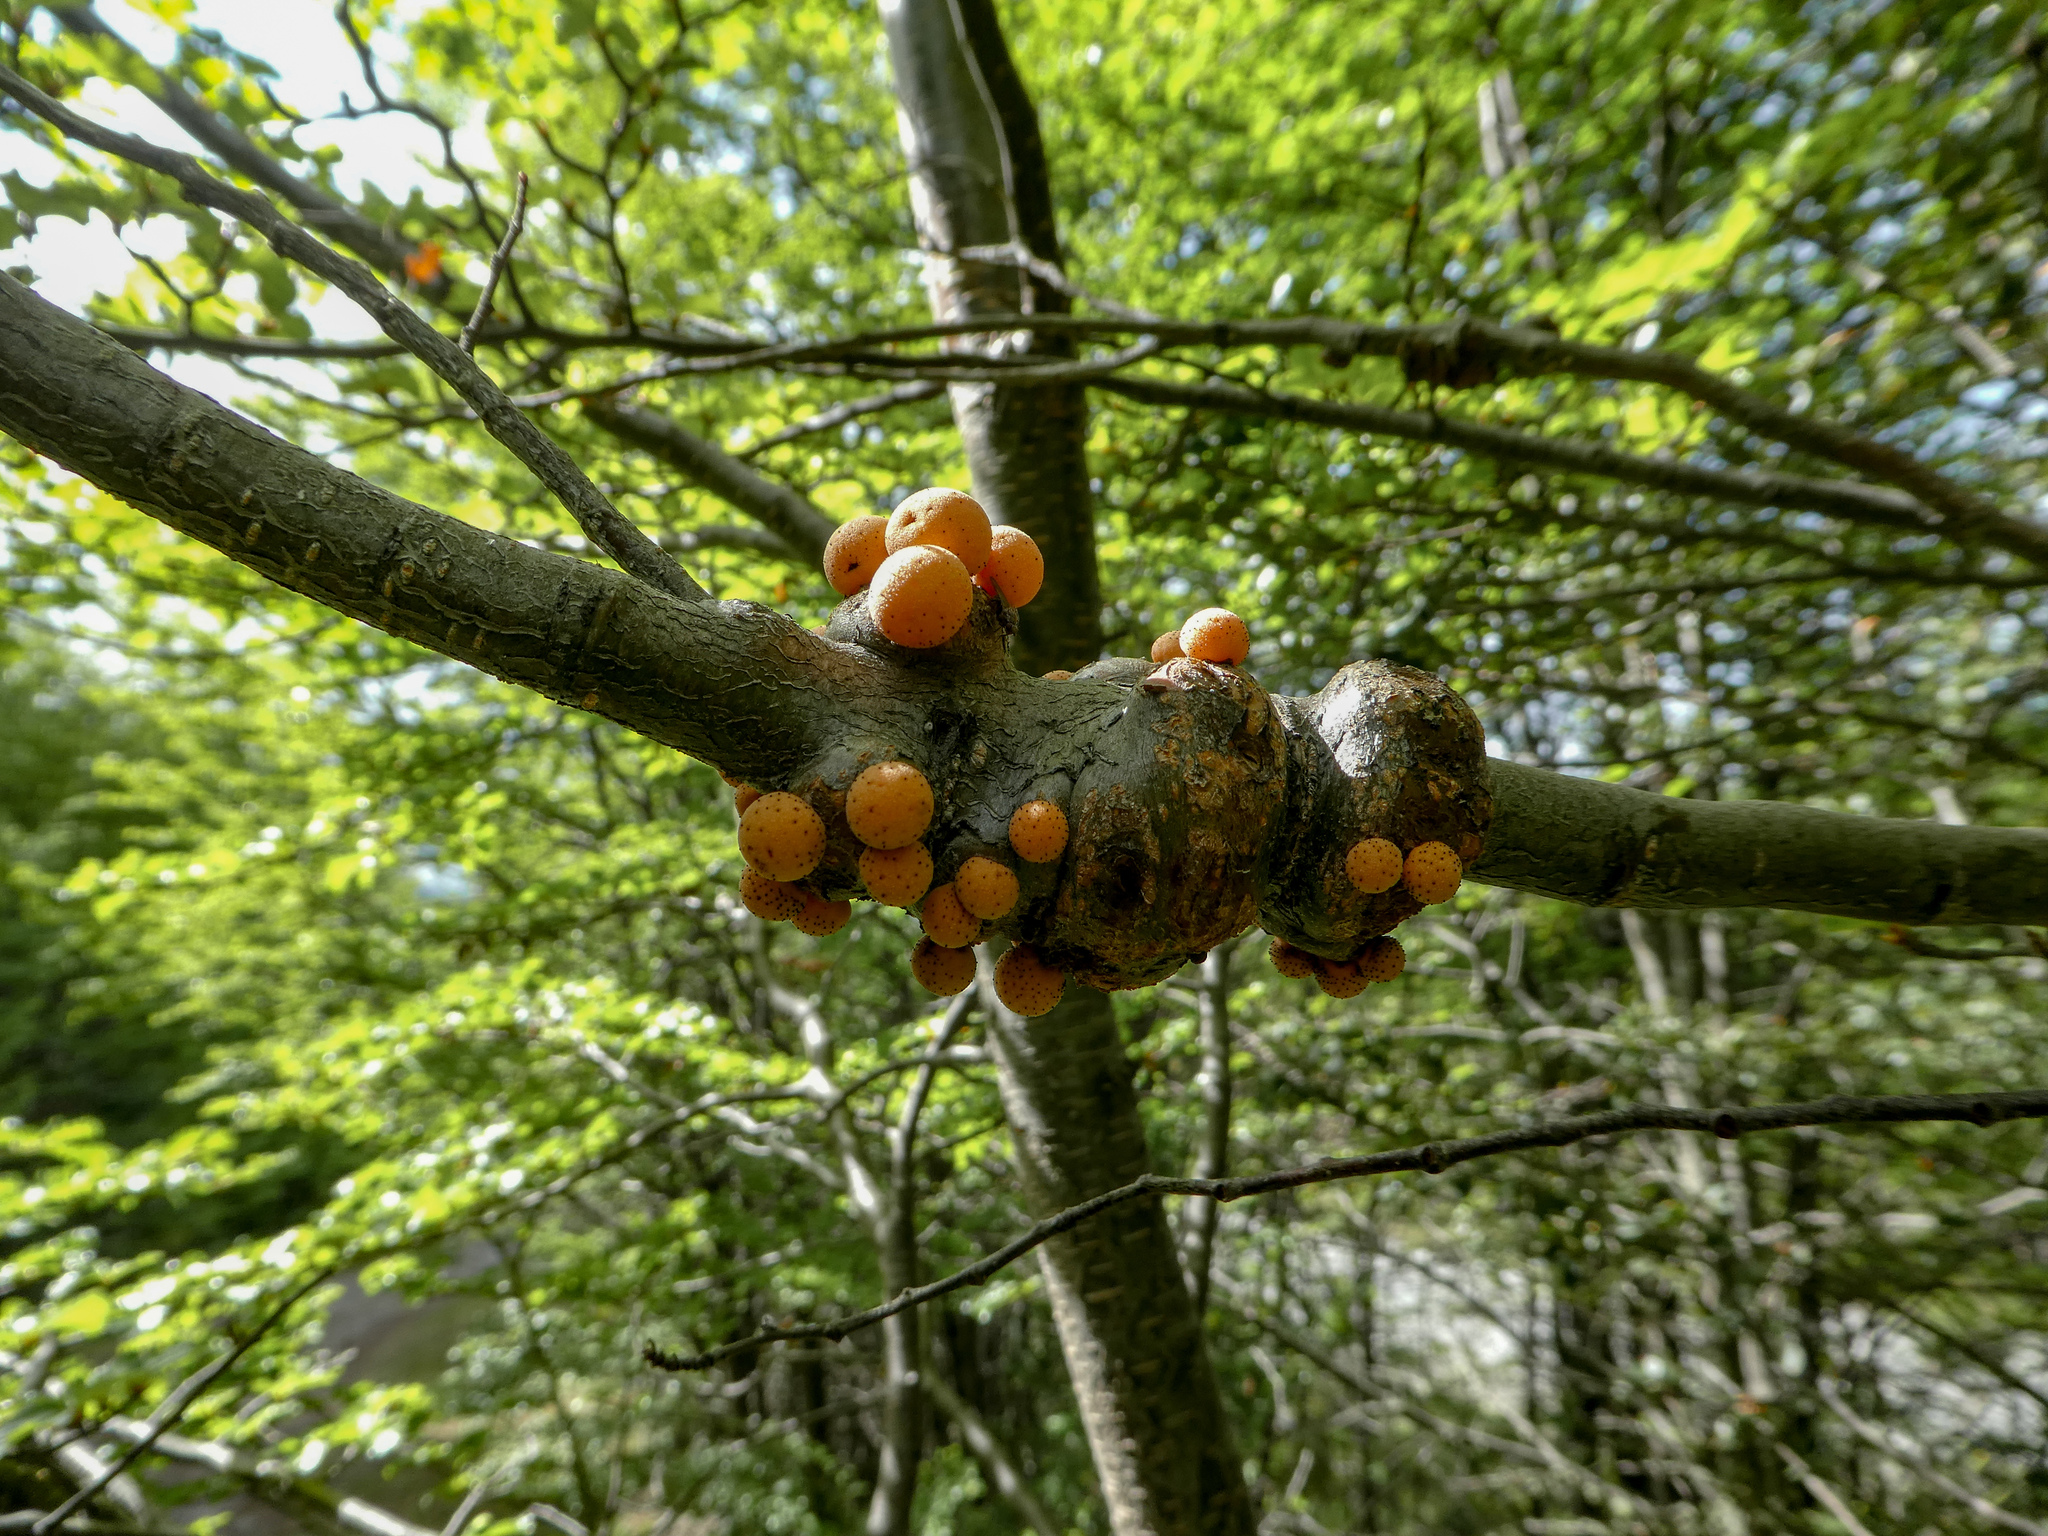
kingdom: Fungi
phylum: Ascomycota
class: Leotiomycetes
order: Cyttariales
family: Cyttariaceae
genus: Cyttaria
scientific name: Cyttaria hariotii
